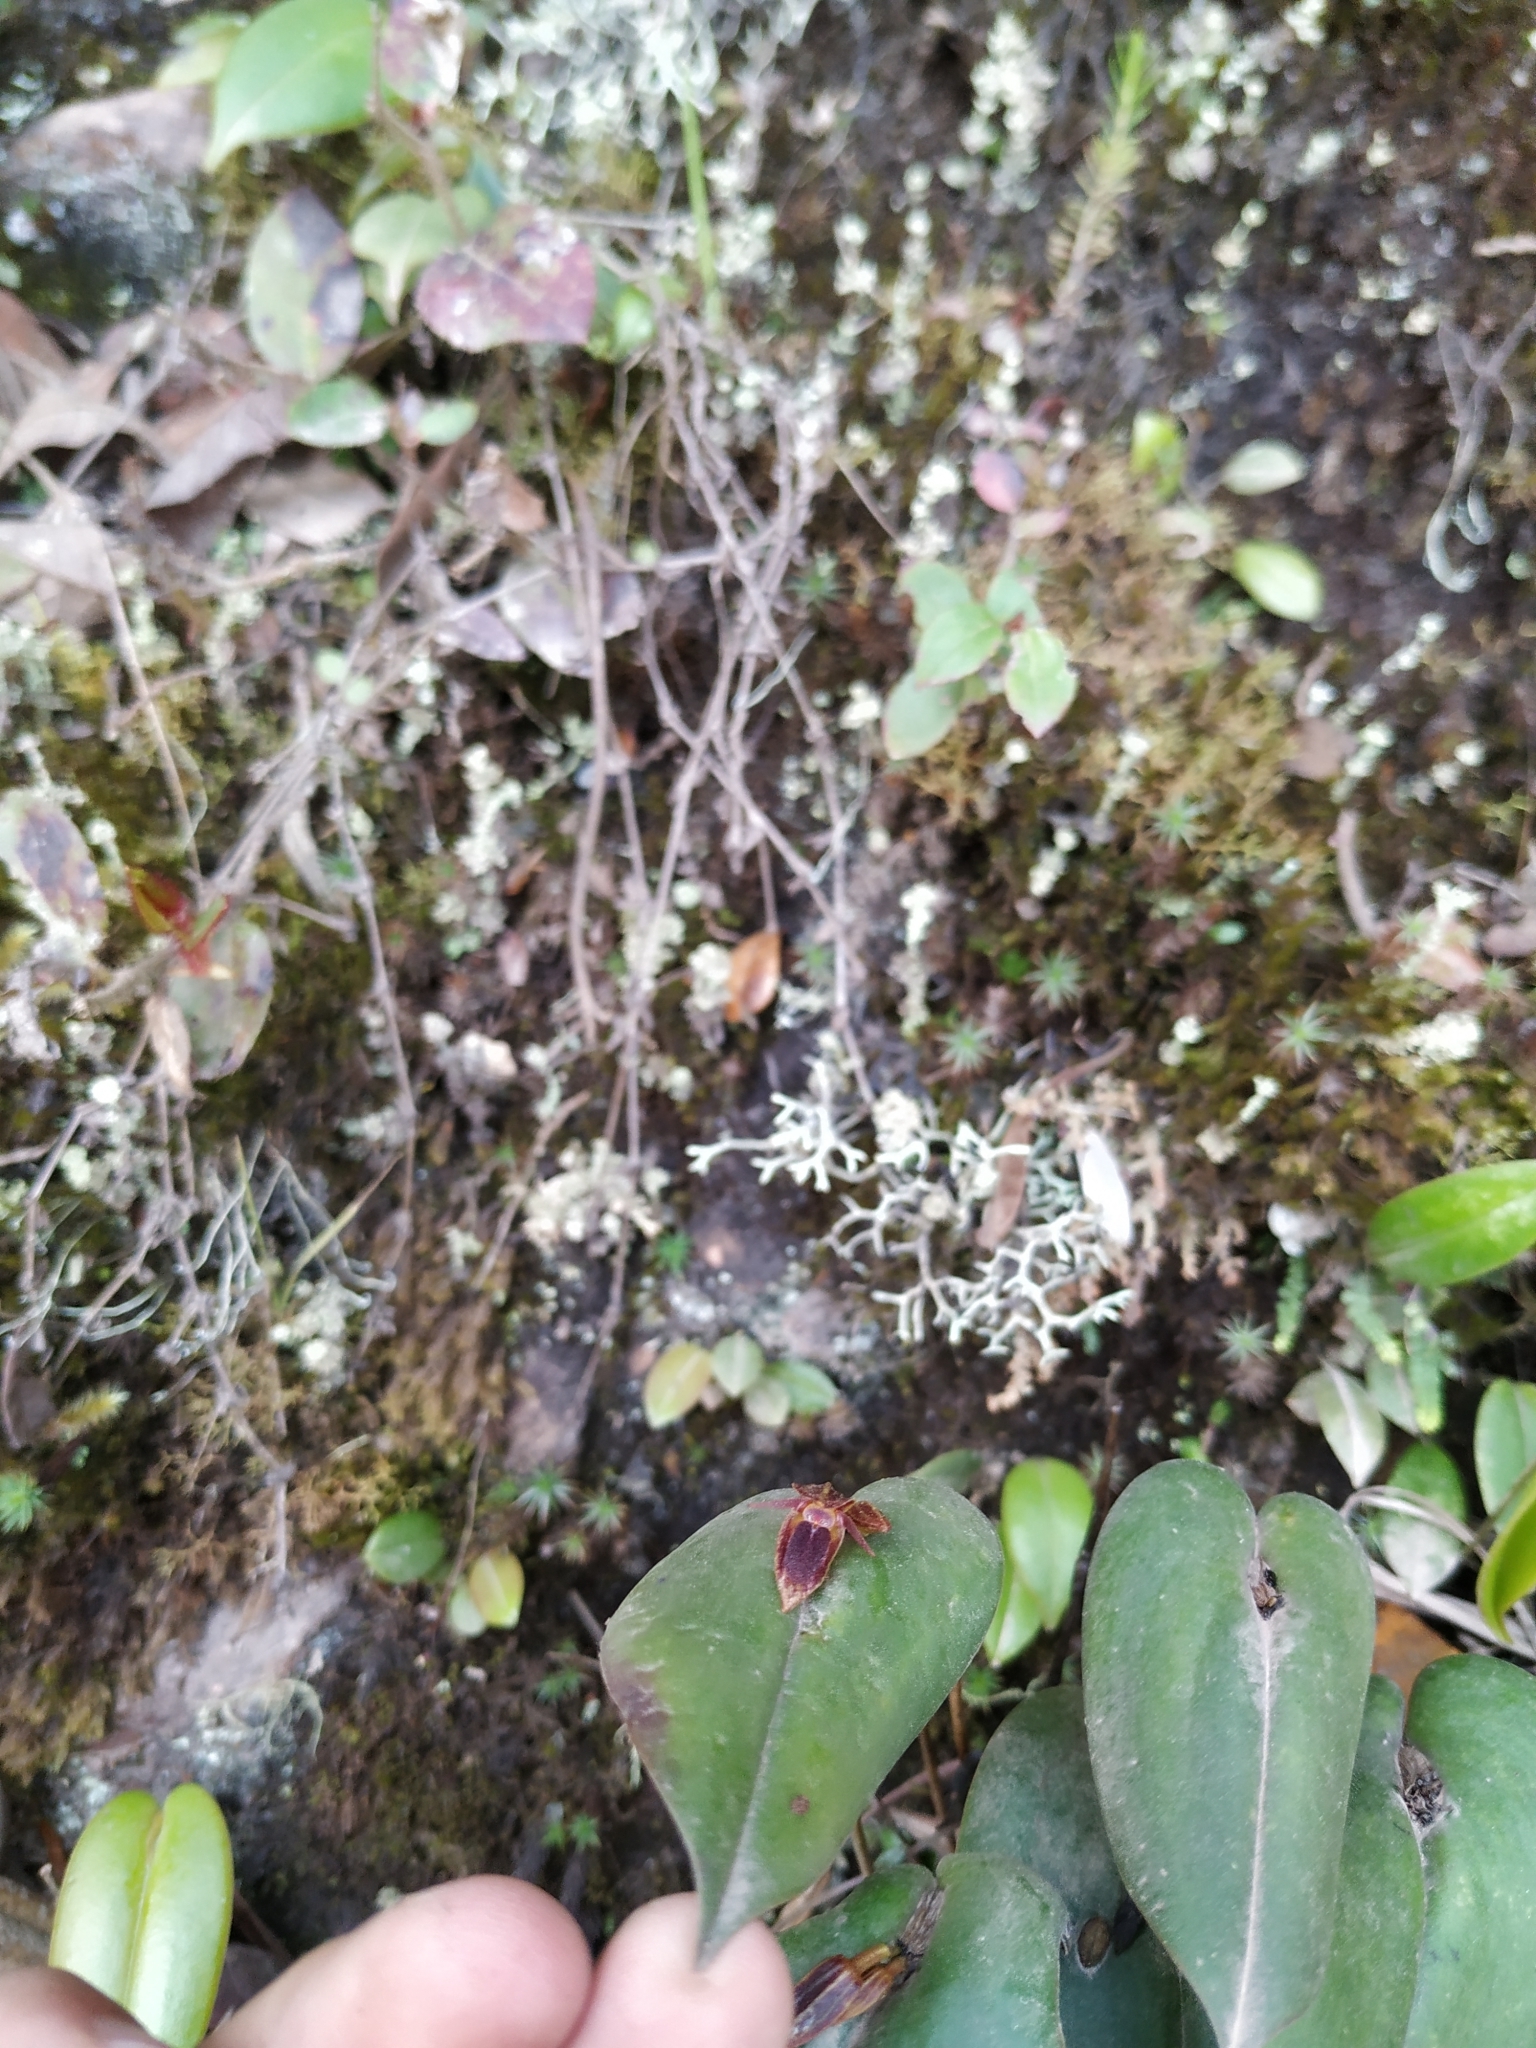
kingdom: Plantae
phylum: Tracheophyta
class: Liliopsida
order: Asparagales
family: Orchidaceae
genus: Pleurothallis
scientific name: Pleurothallis coriacardia
